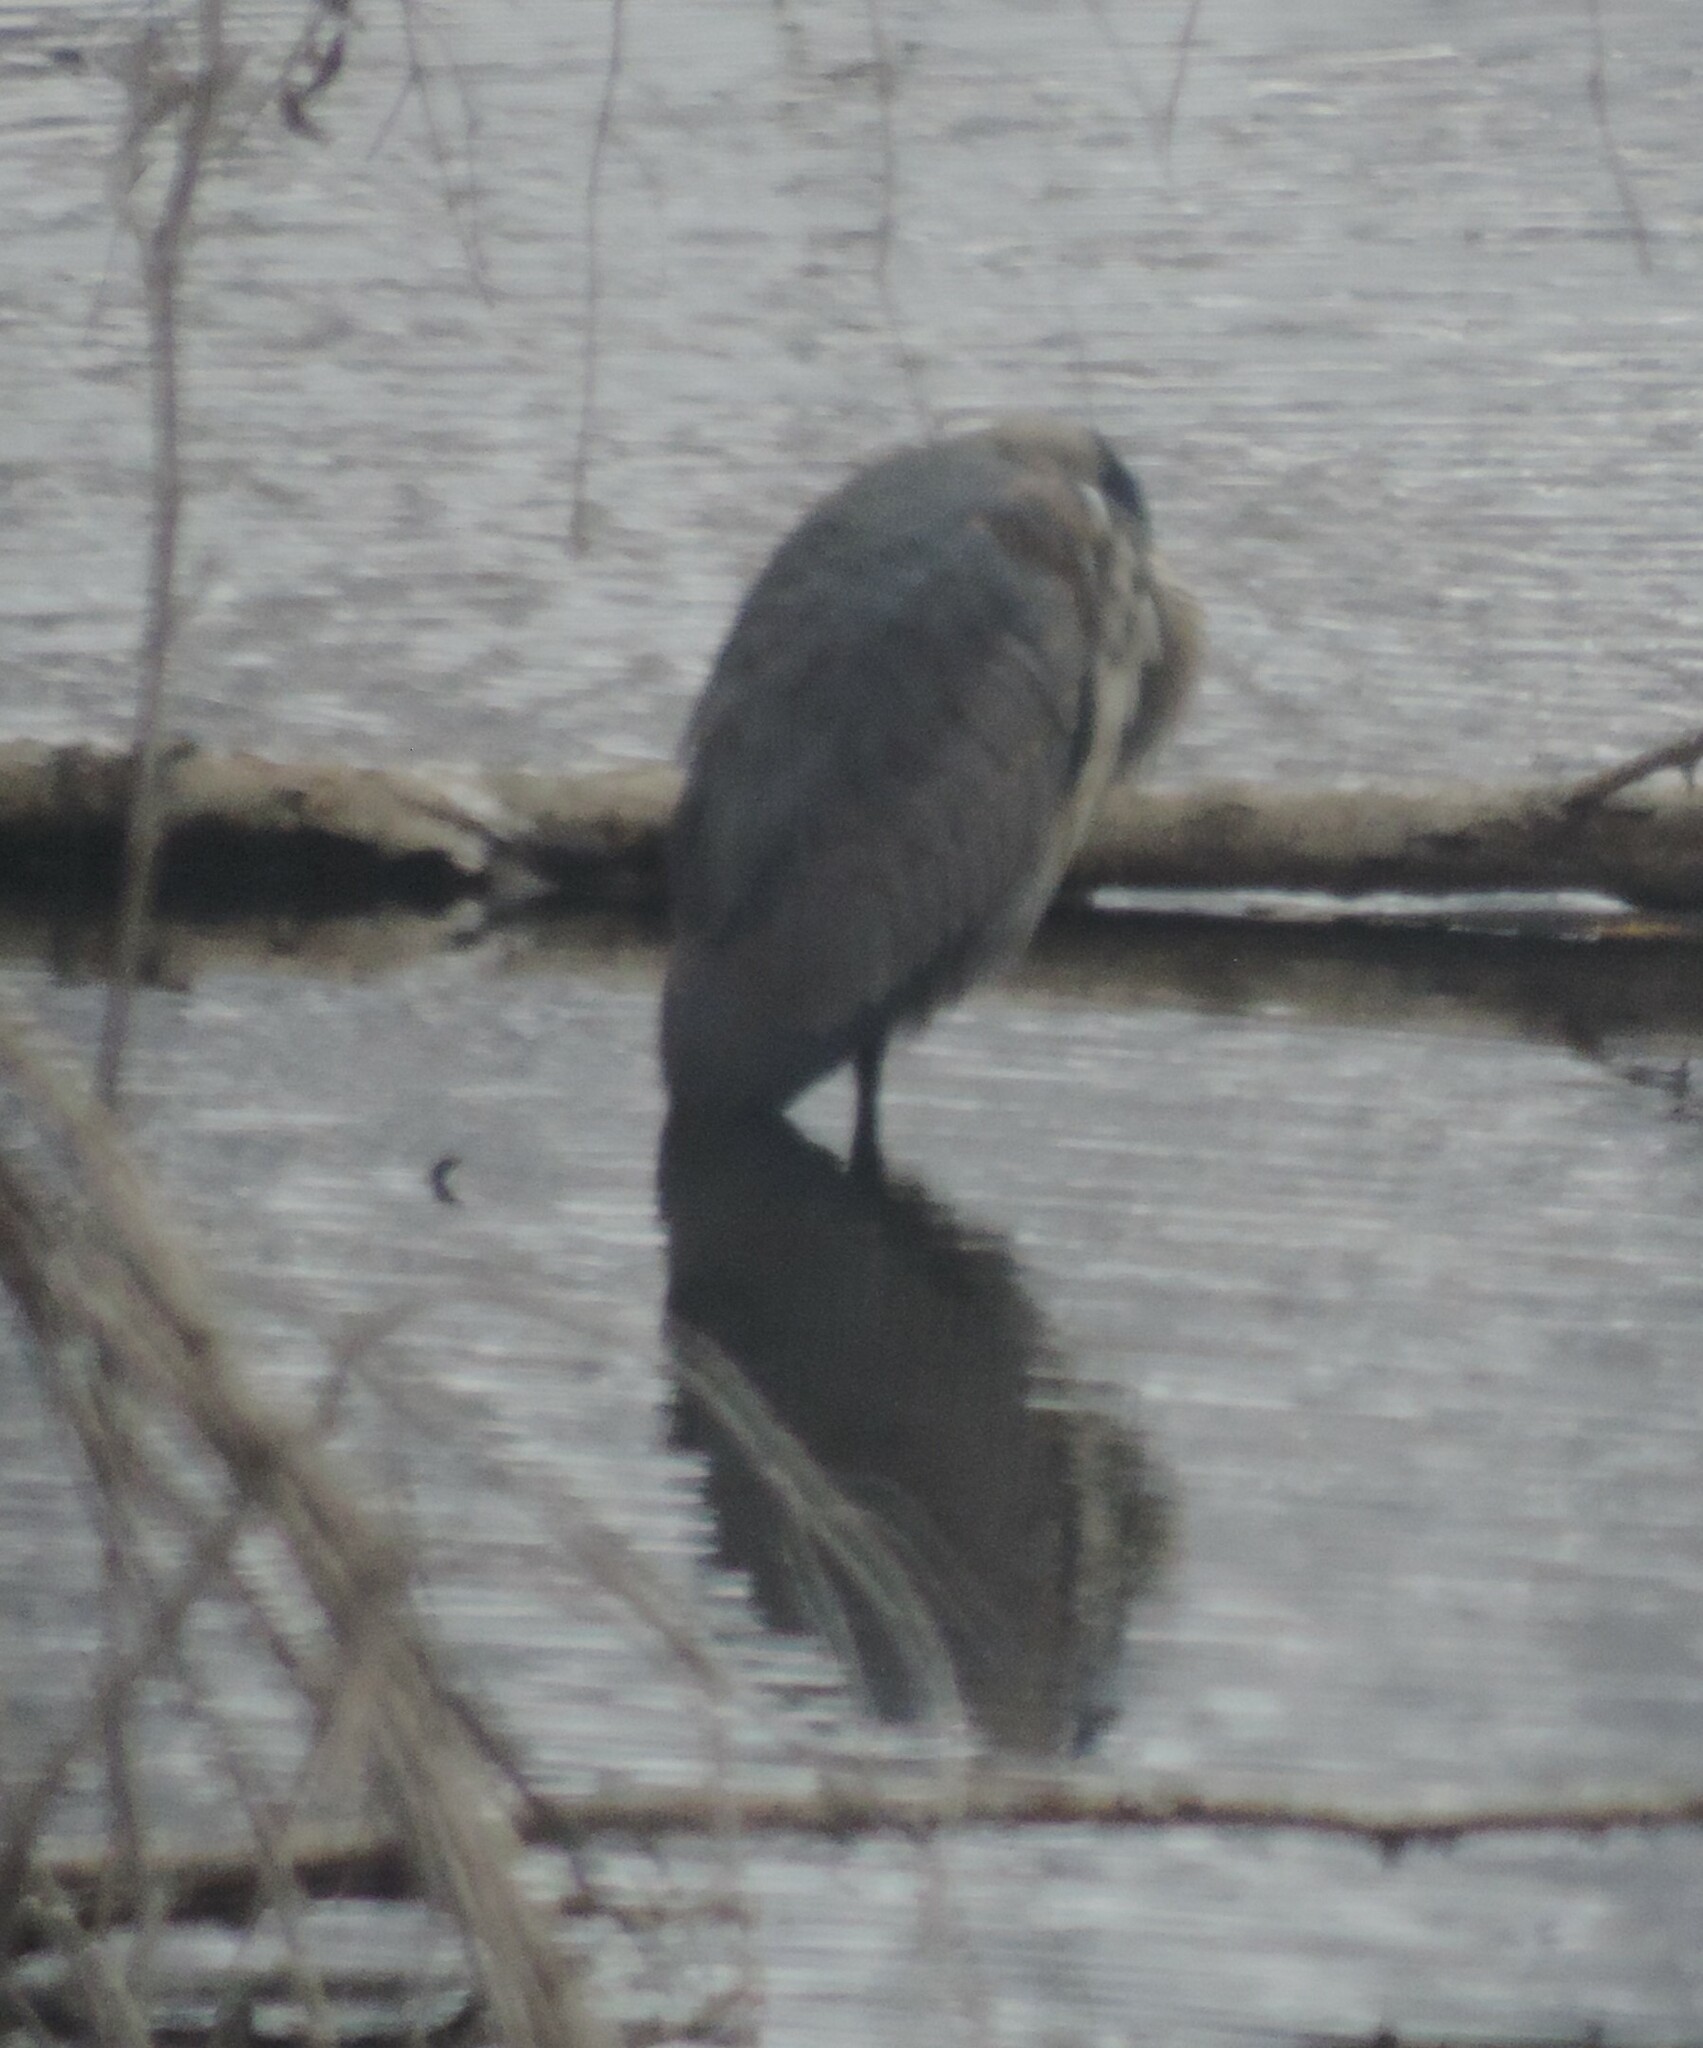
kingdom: Animalia
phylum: Chordata
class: Aves
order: Pelecaniformes
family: Ardeidae
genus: Ardea
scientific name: Ardea herodias
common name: Great blue heron
